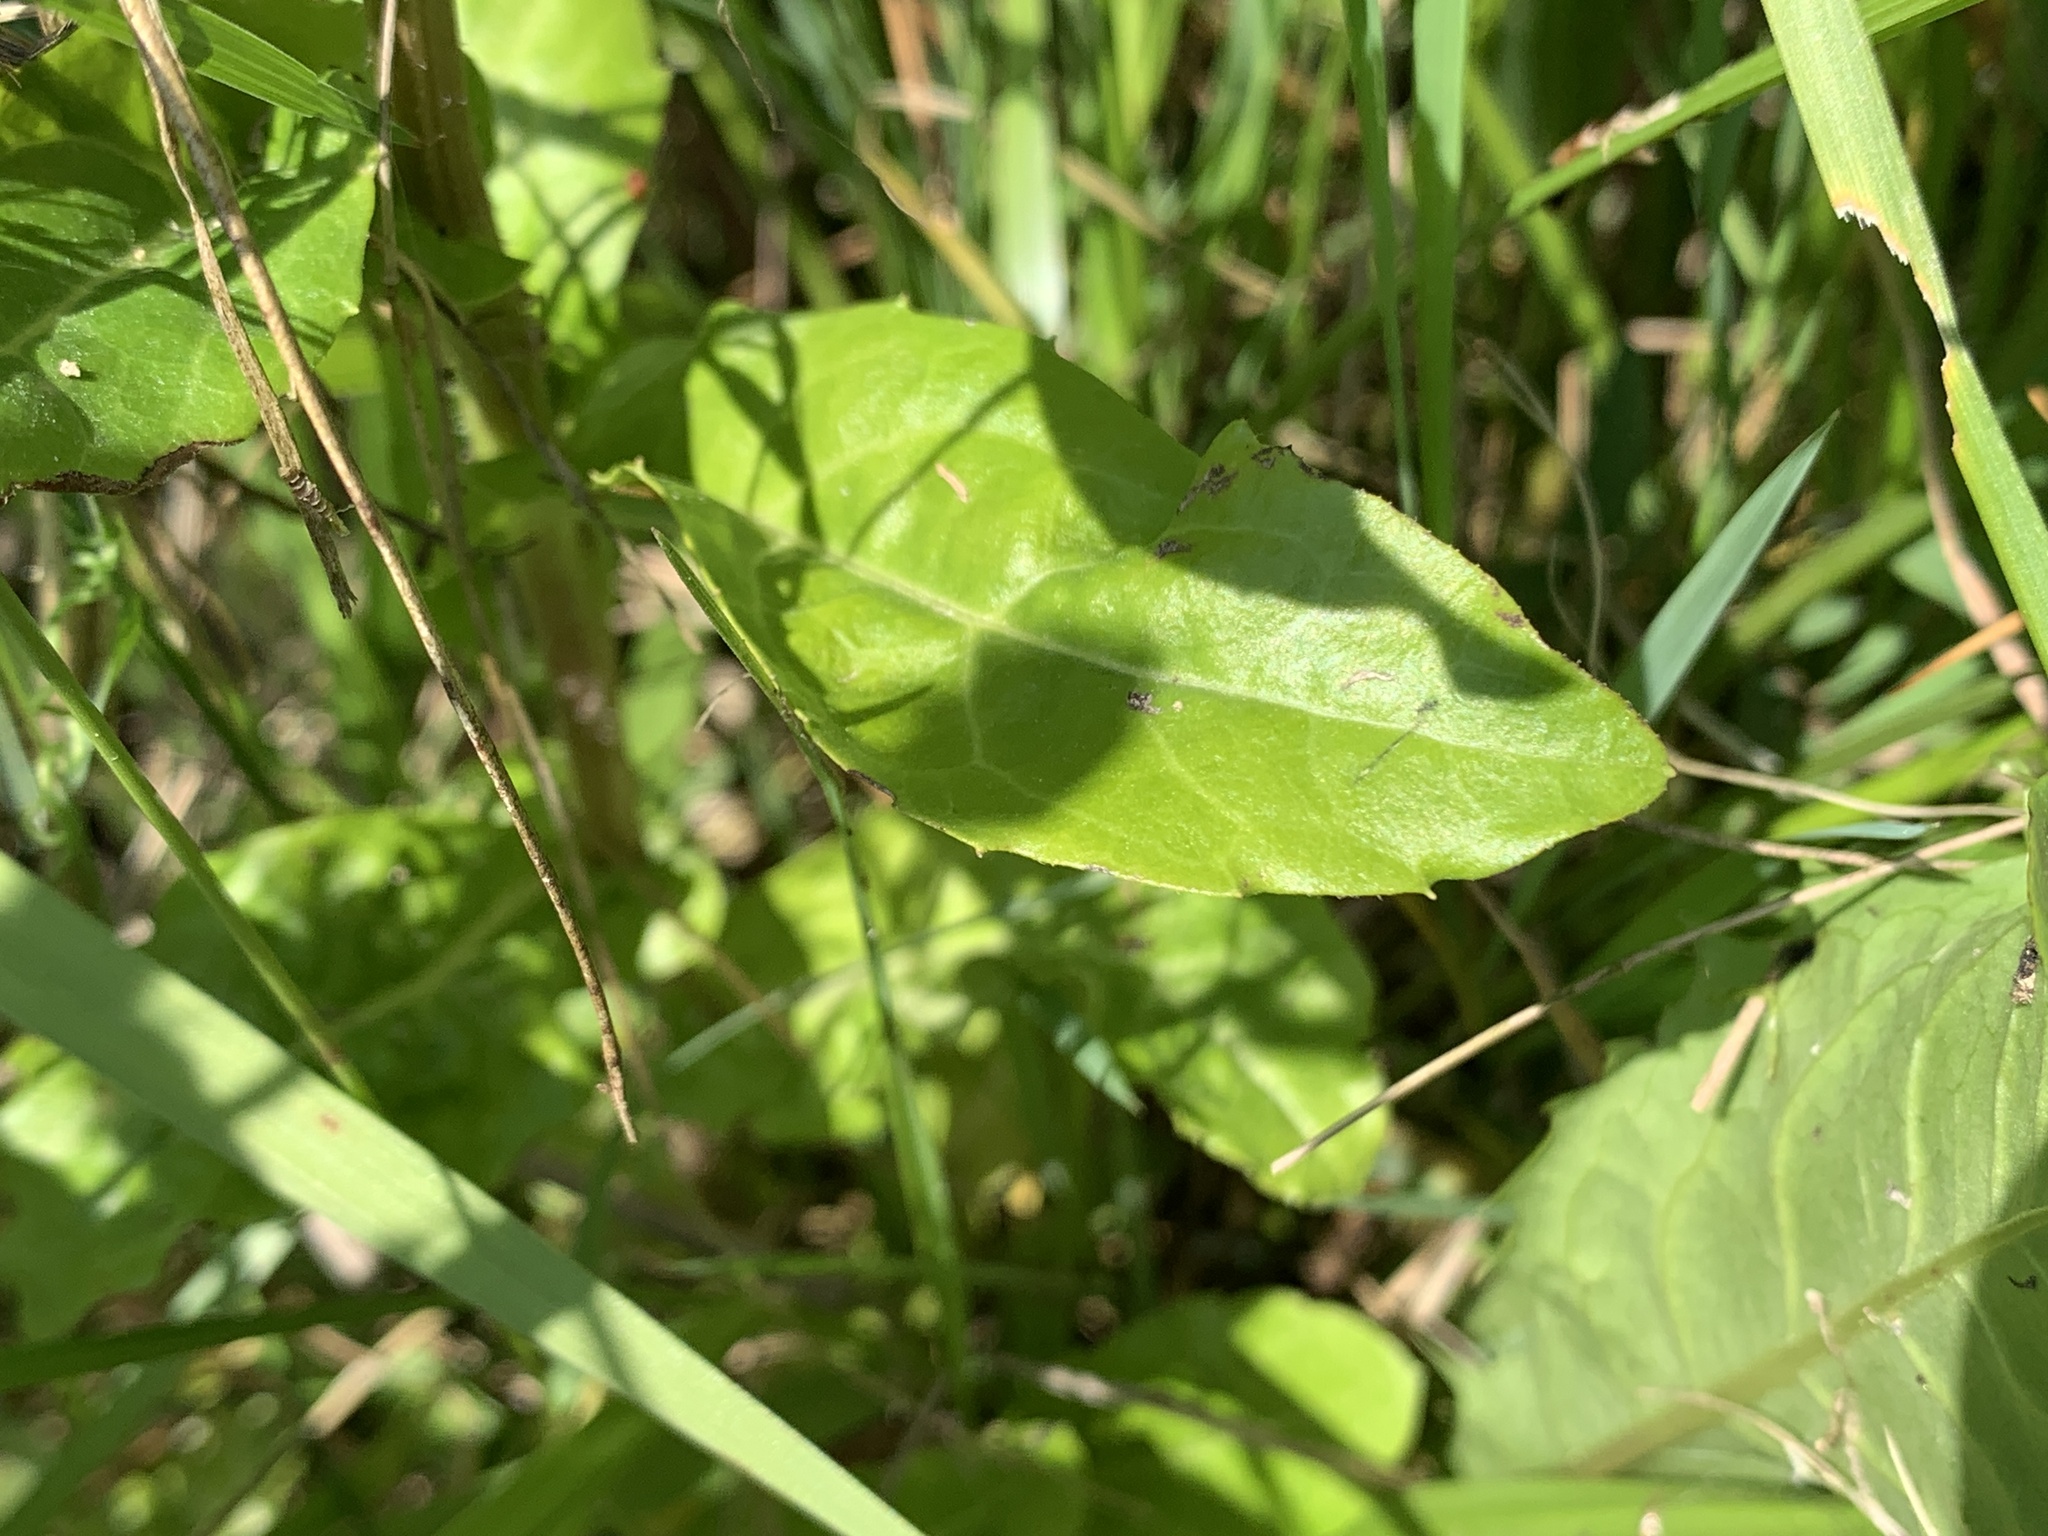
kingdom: Plantae
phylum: Tracheophyta
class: Magnoliopsida
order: Asterales
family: Asteraceae
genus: Erigeron
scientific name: Erigeron philadelphicus
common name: Robin's-plantain
